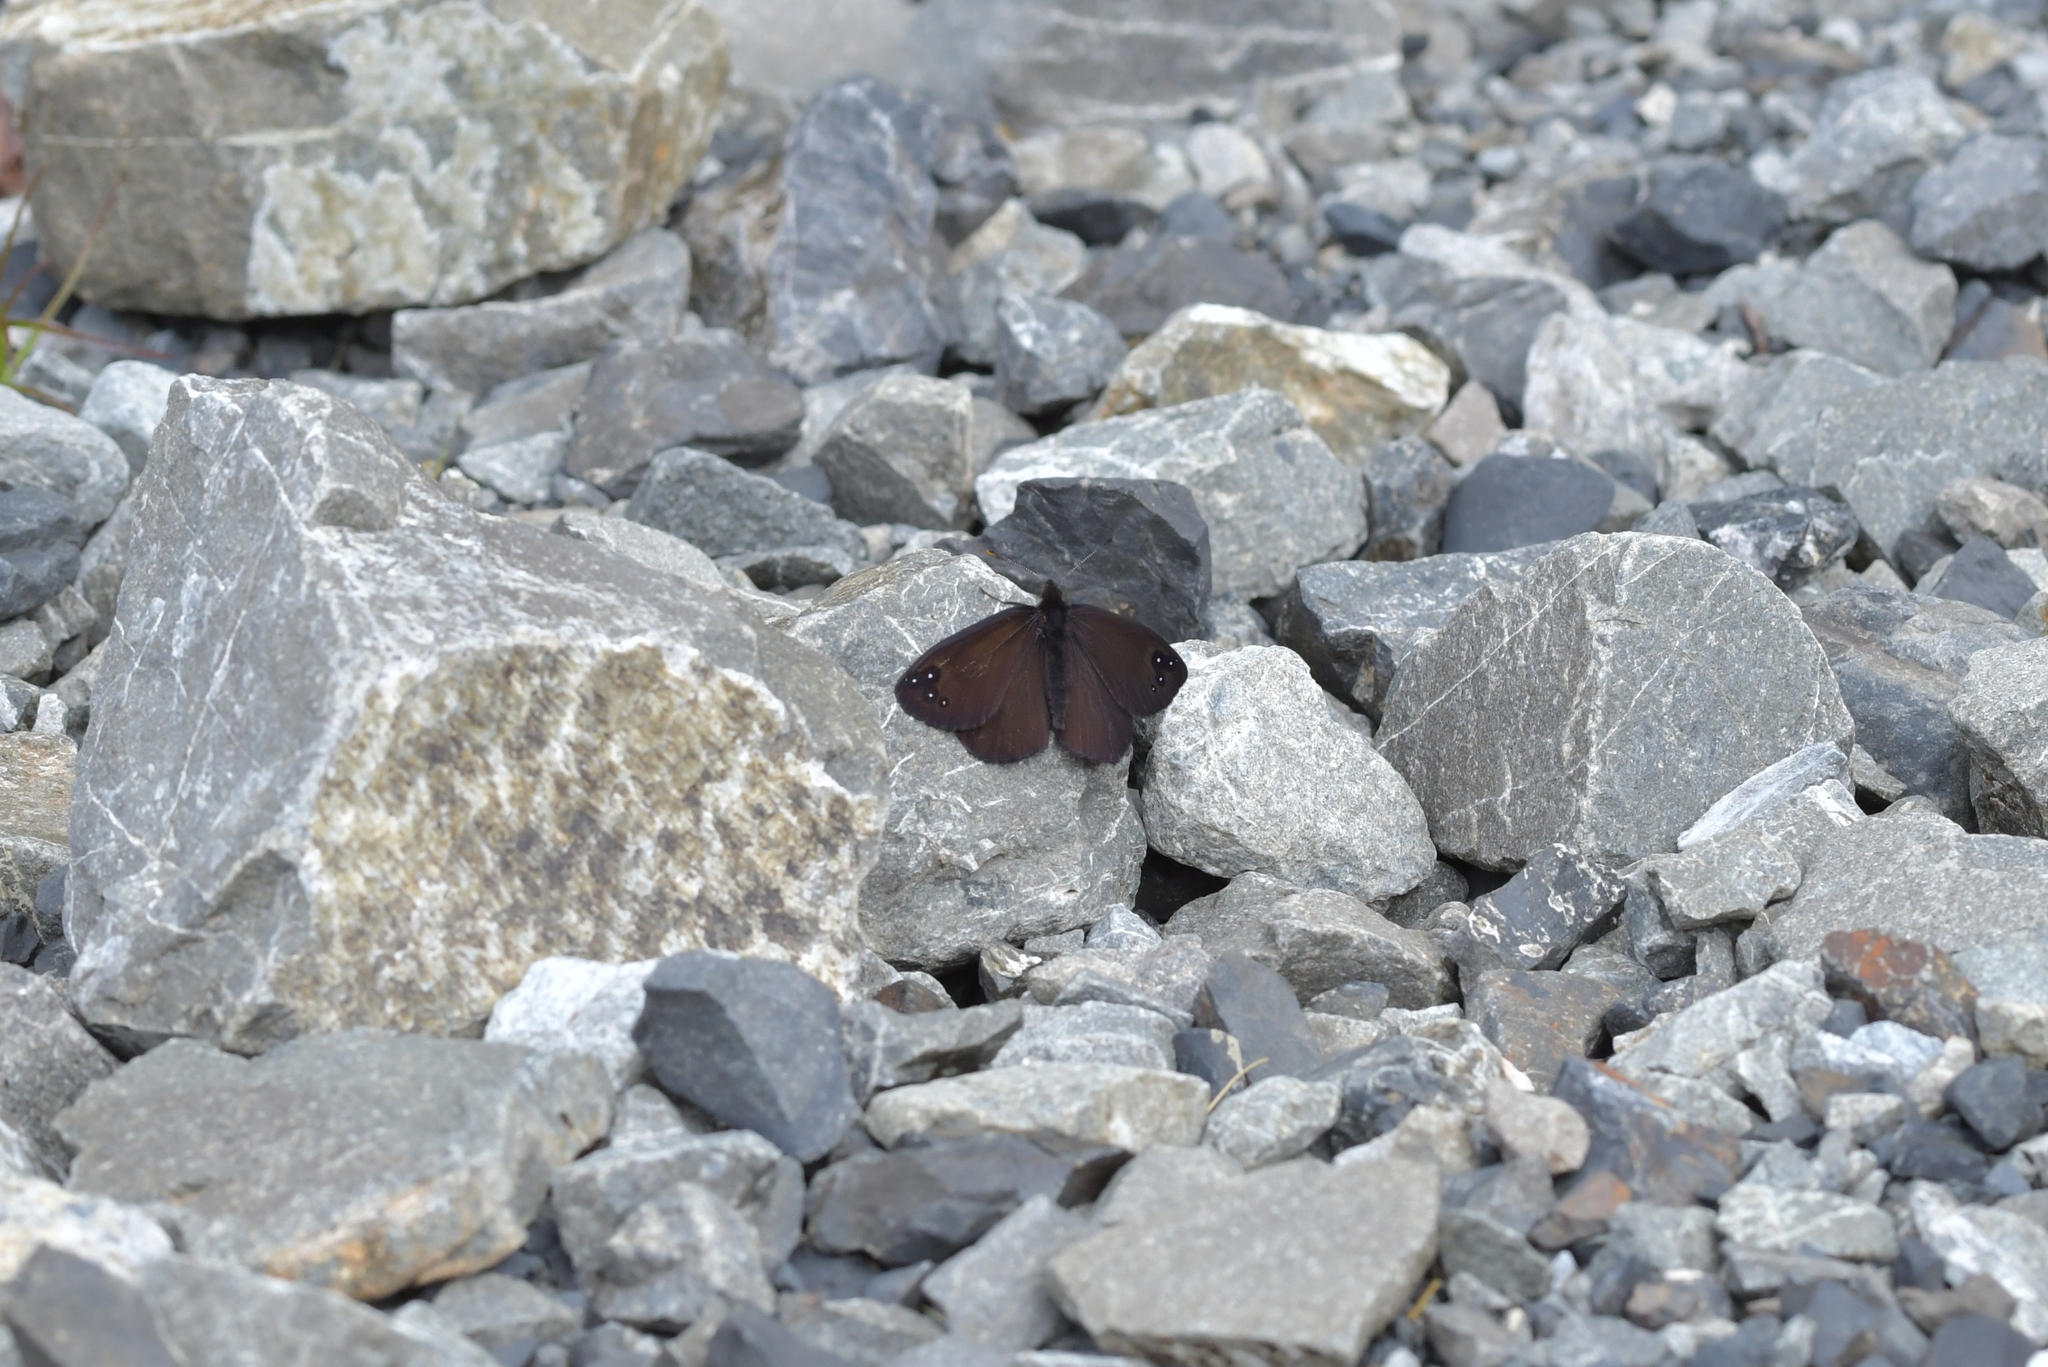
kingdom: Animalia
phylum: Arthropoda
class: Insecta
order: Lepidoptera
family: Nymphalidae
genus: Erebia
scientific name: Erebia Percnodaimon merula
